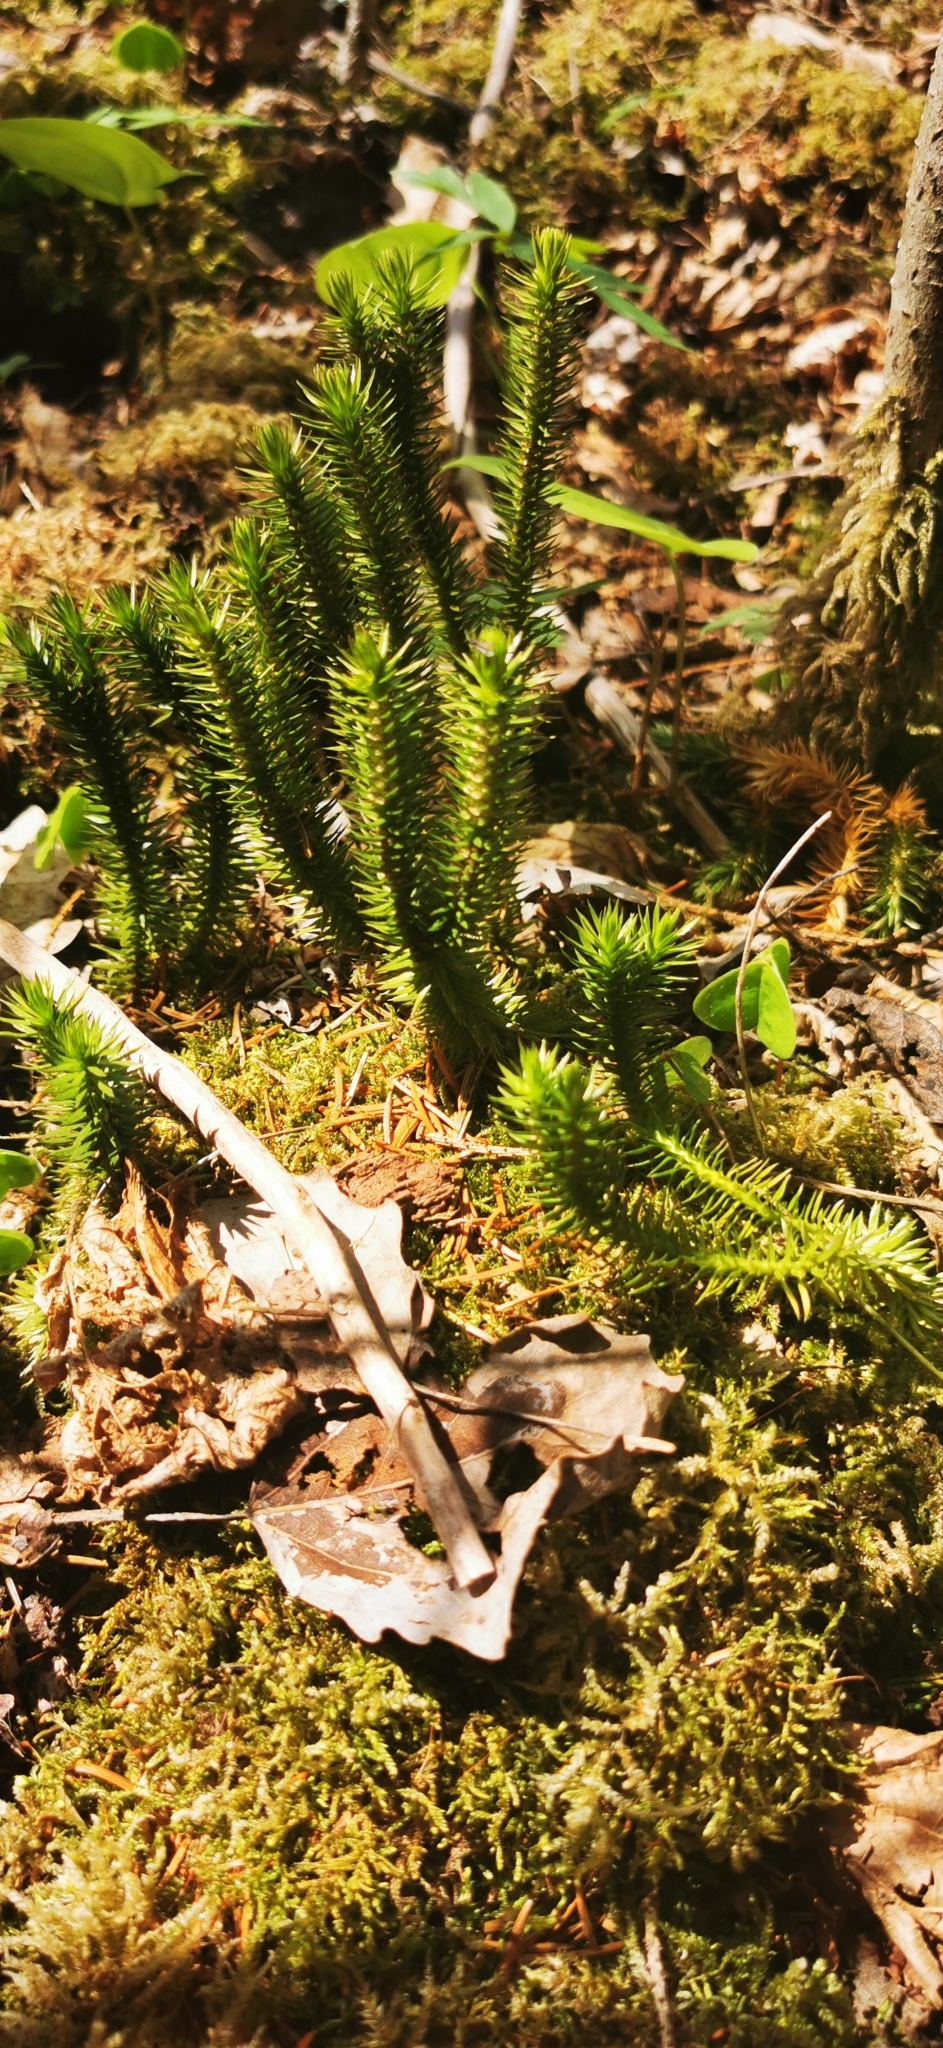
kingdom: Plantae
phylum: Tracheophyta
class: Lycopodiopsida
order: Lycopodiales
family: Lycopodiaceae
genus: Huperzia
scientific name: Huperzia selago
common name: Northern firmoss
